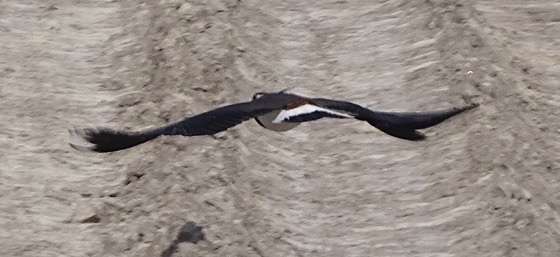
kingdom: Animalia
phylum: Chordata
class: Aves
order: Charadriiformes
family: Charadriidae
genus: Vanellus
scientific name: Vanellus vanellus
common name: Northern lapwing
